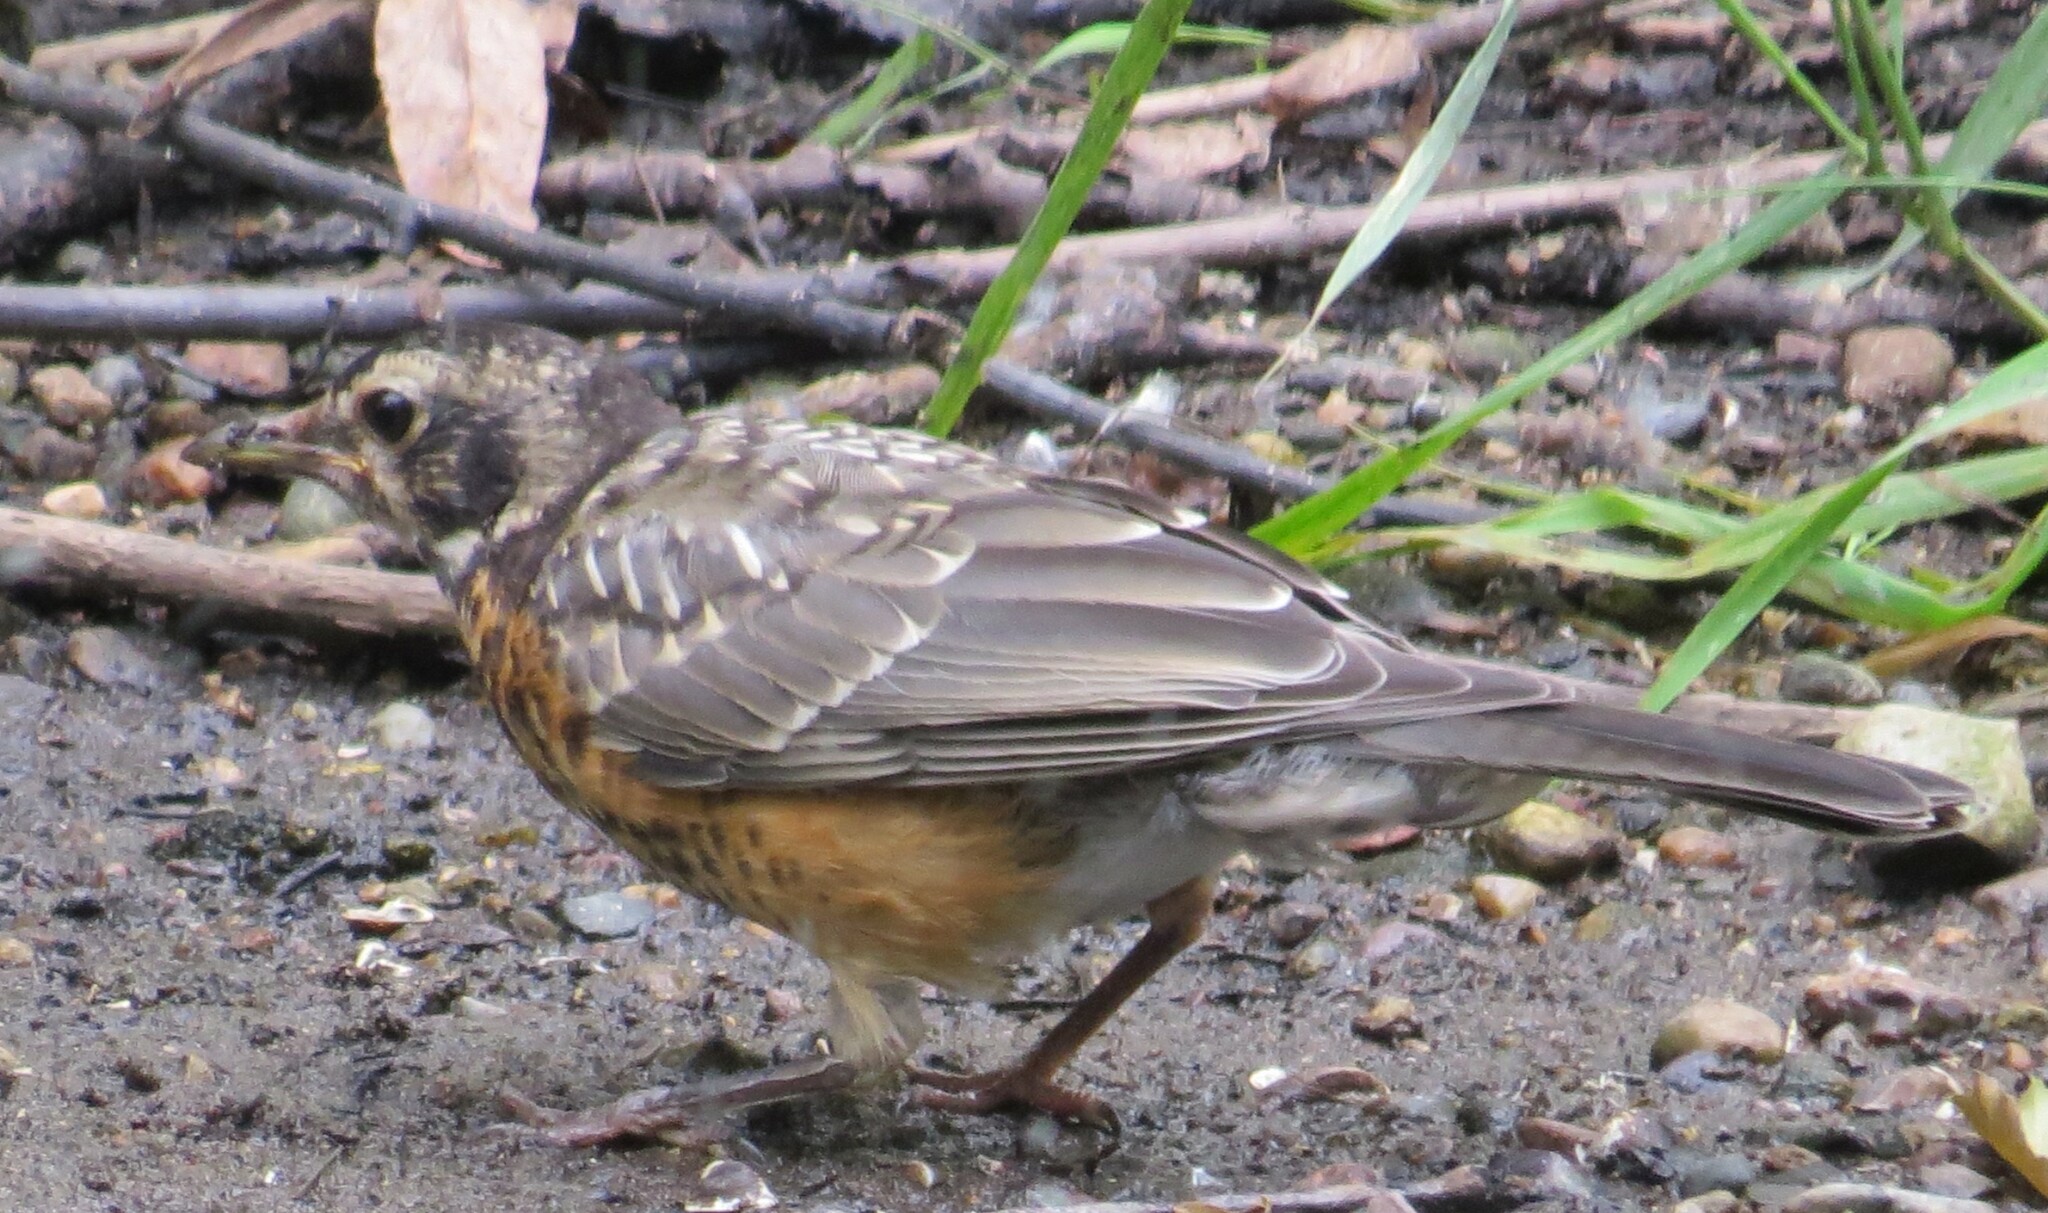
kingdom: Animalia
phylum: Chordata
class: Aves
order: Passeriformes
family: Turdidae
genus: Turdus
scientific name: Turdus migratorius
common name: American robin
